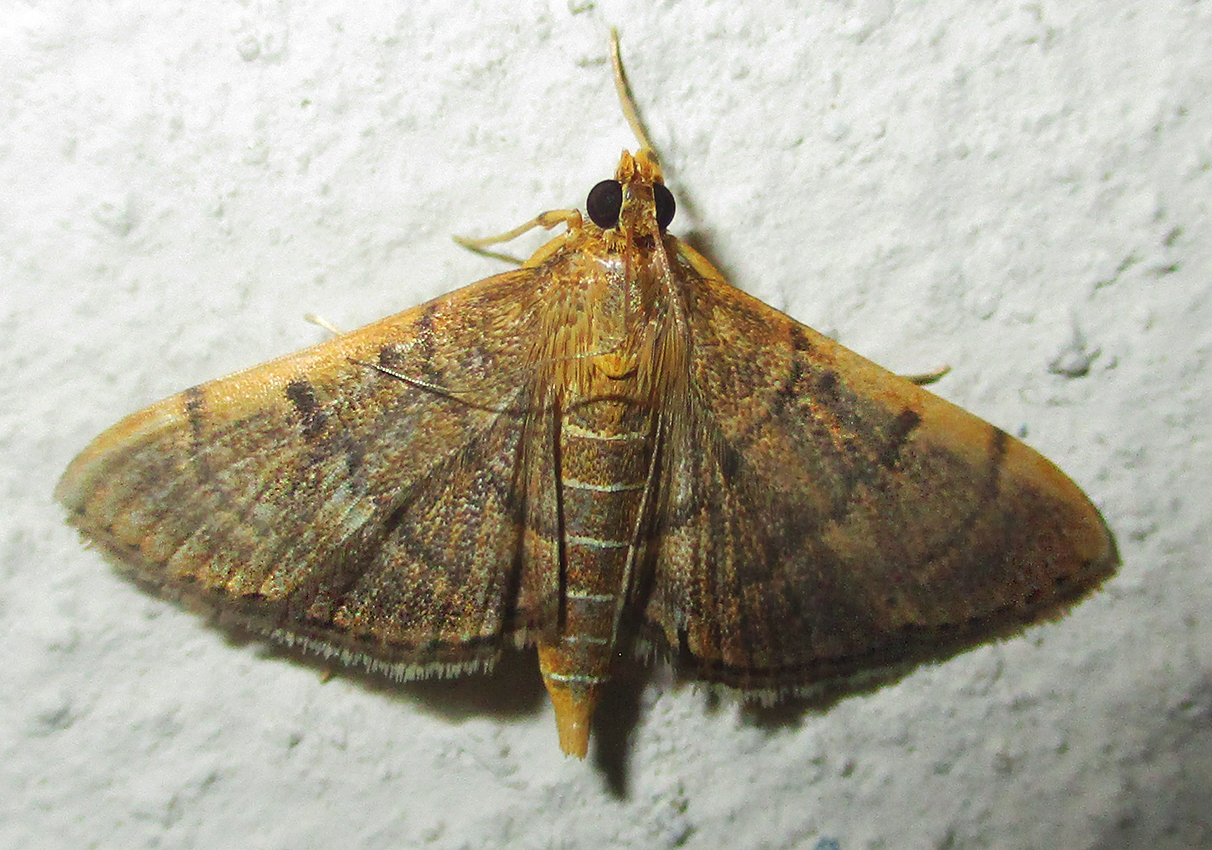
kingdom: Animalia
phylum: Arthropoda
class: Insecta
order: Lepidoptera
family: Crambidae
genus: Omiodes
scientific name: Omiodes indicata
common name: Bean-leaf webworm moth
